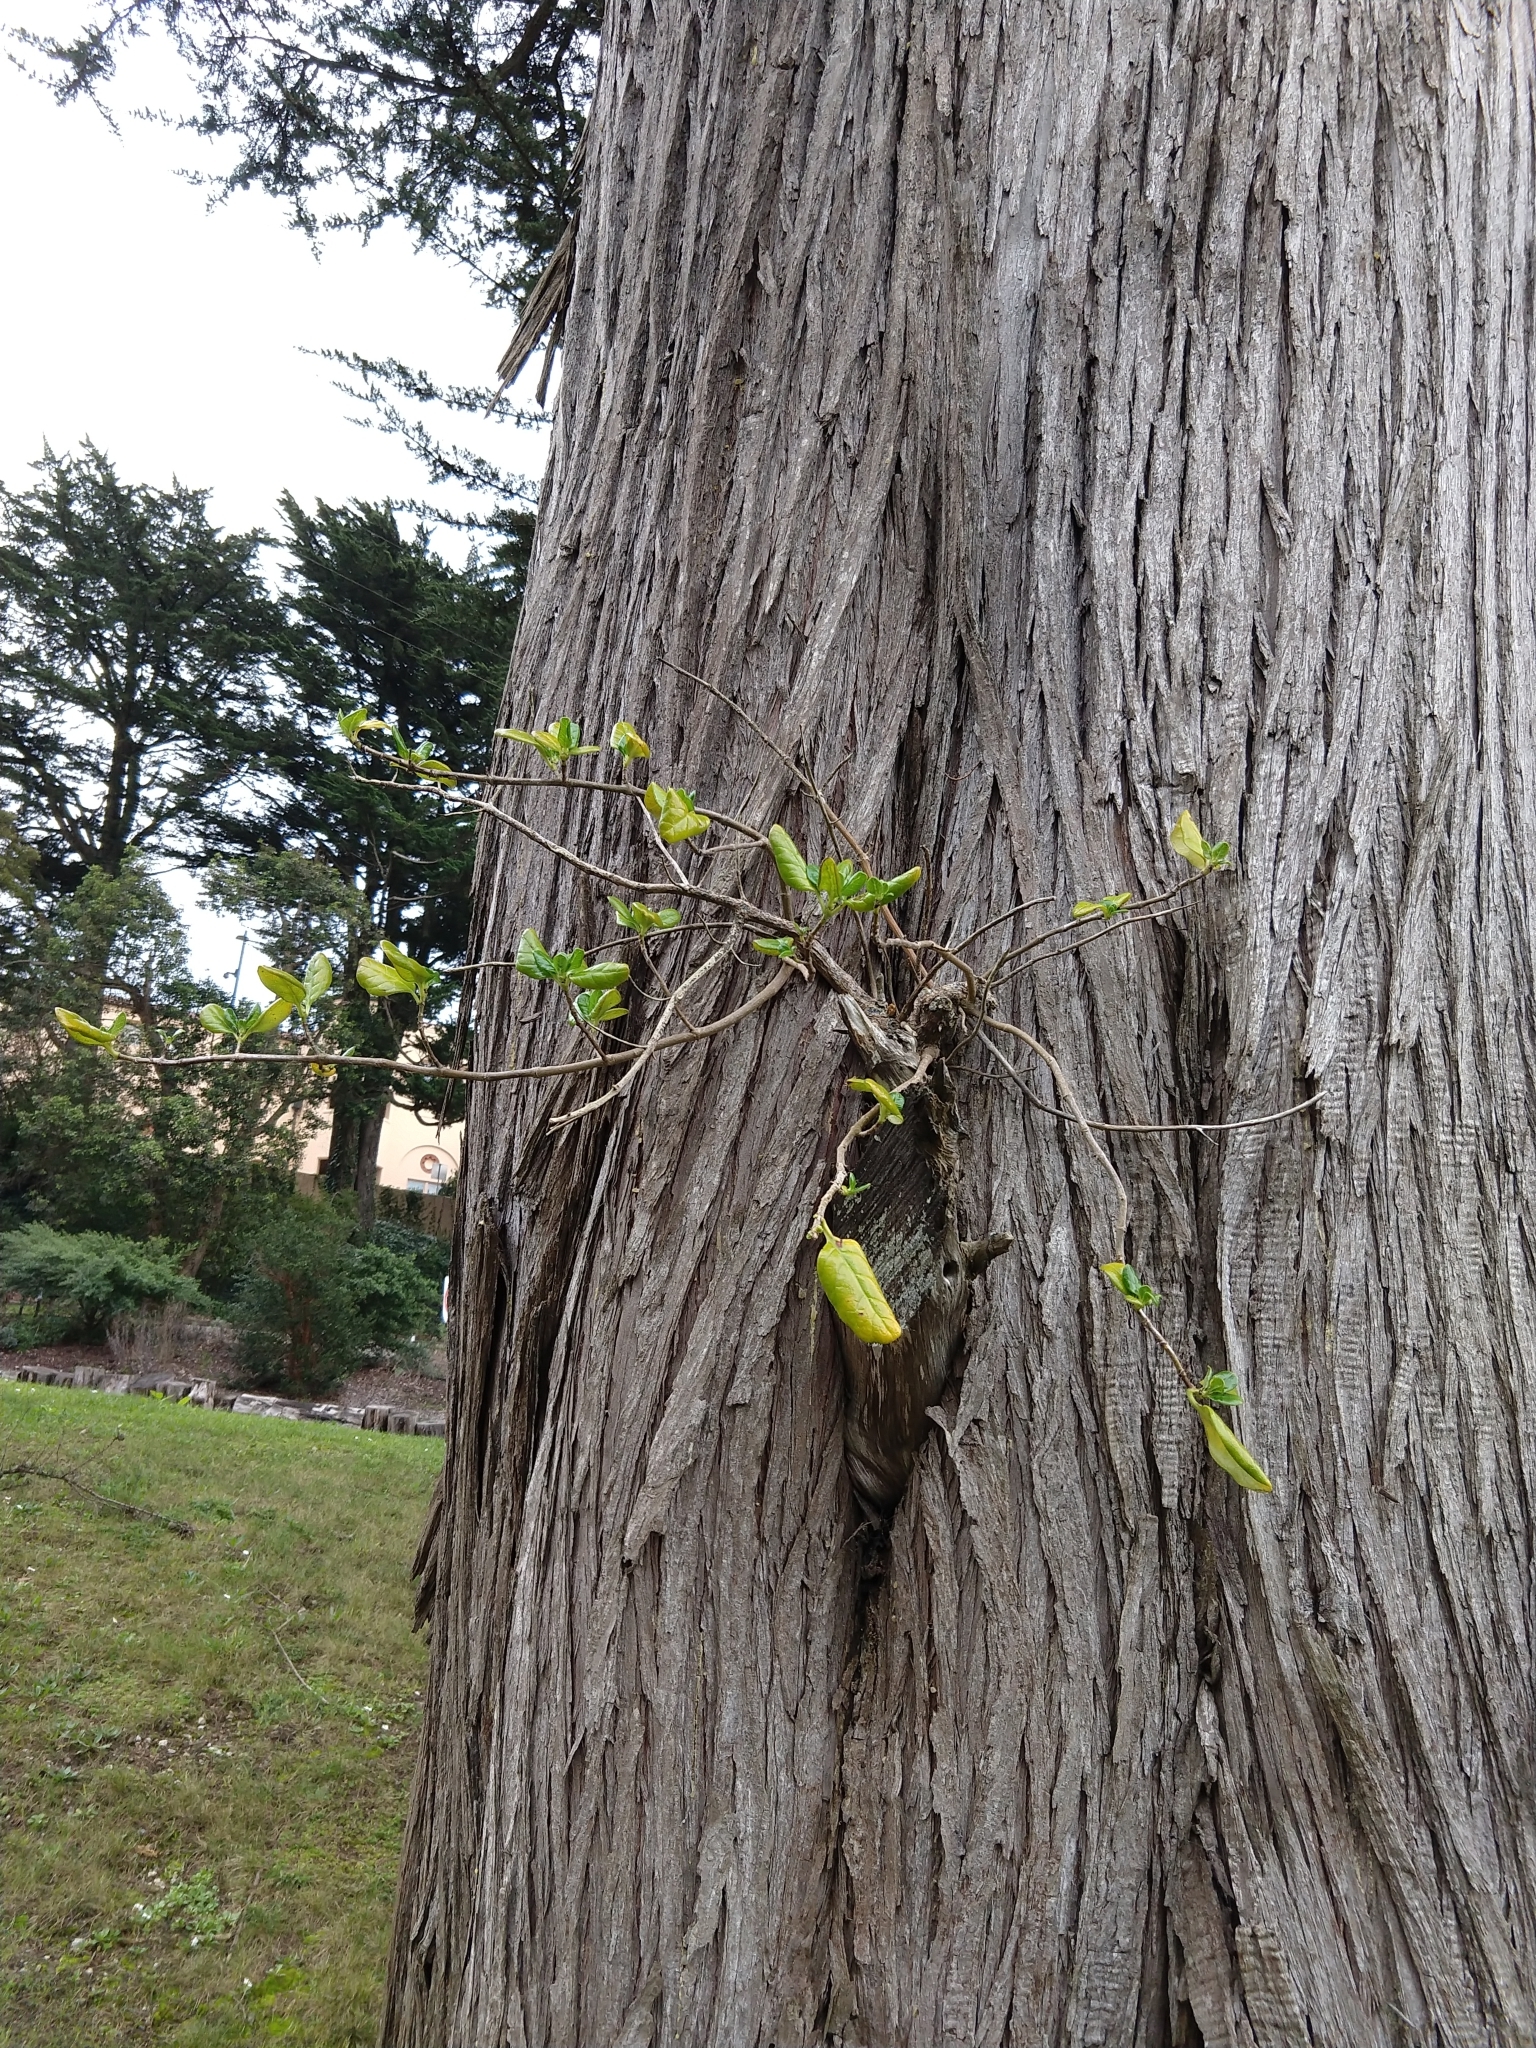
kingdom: Plantae
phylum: Tracheophyta
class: Magnoliopsida
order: Gentianales
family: Rubiaceae
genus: Coprosma
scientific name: Coprosma repens
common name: Tree bedstraw
